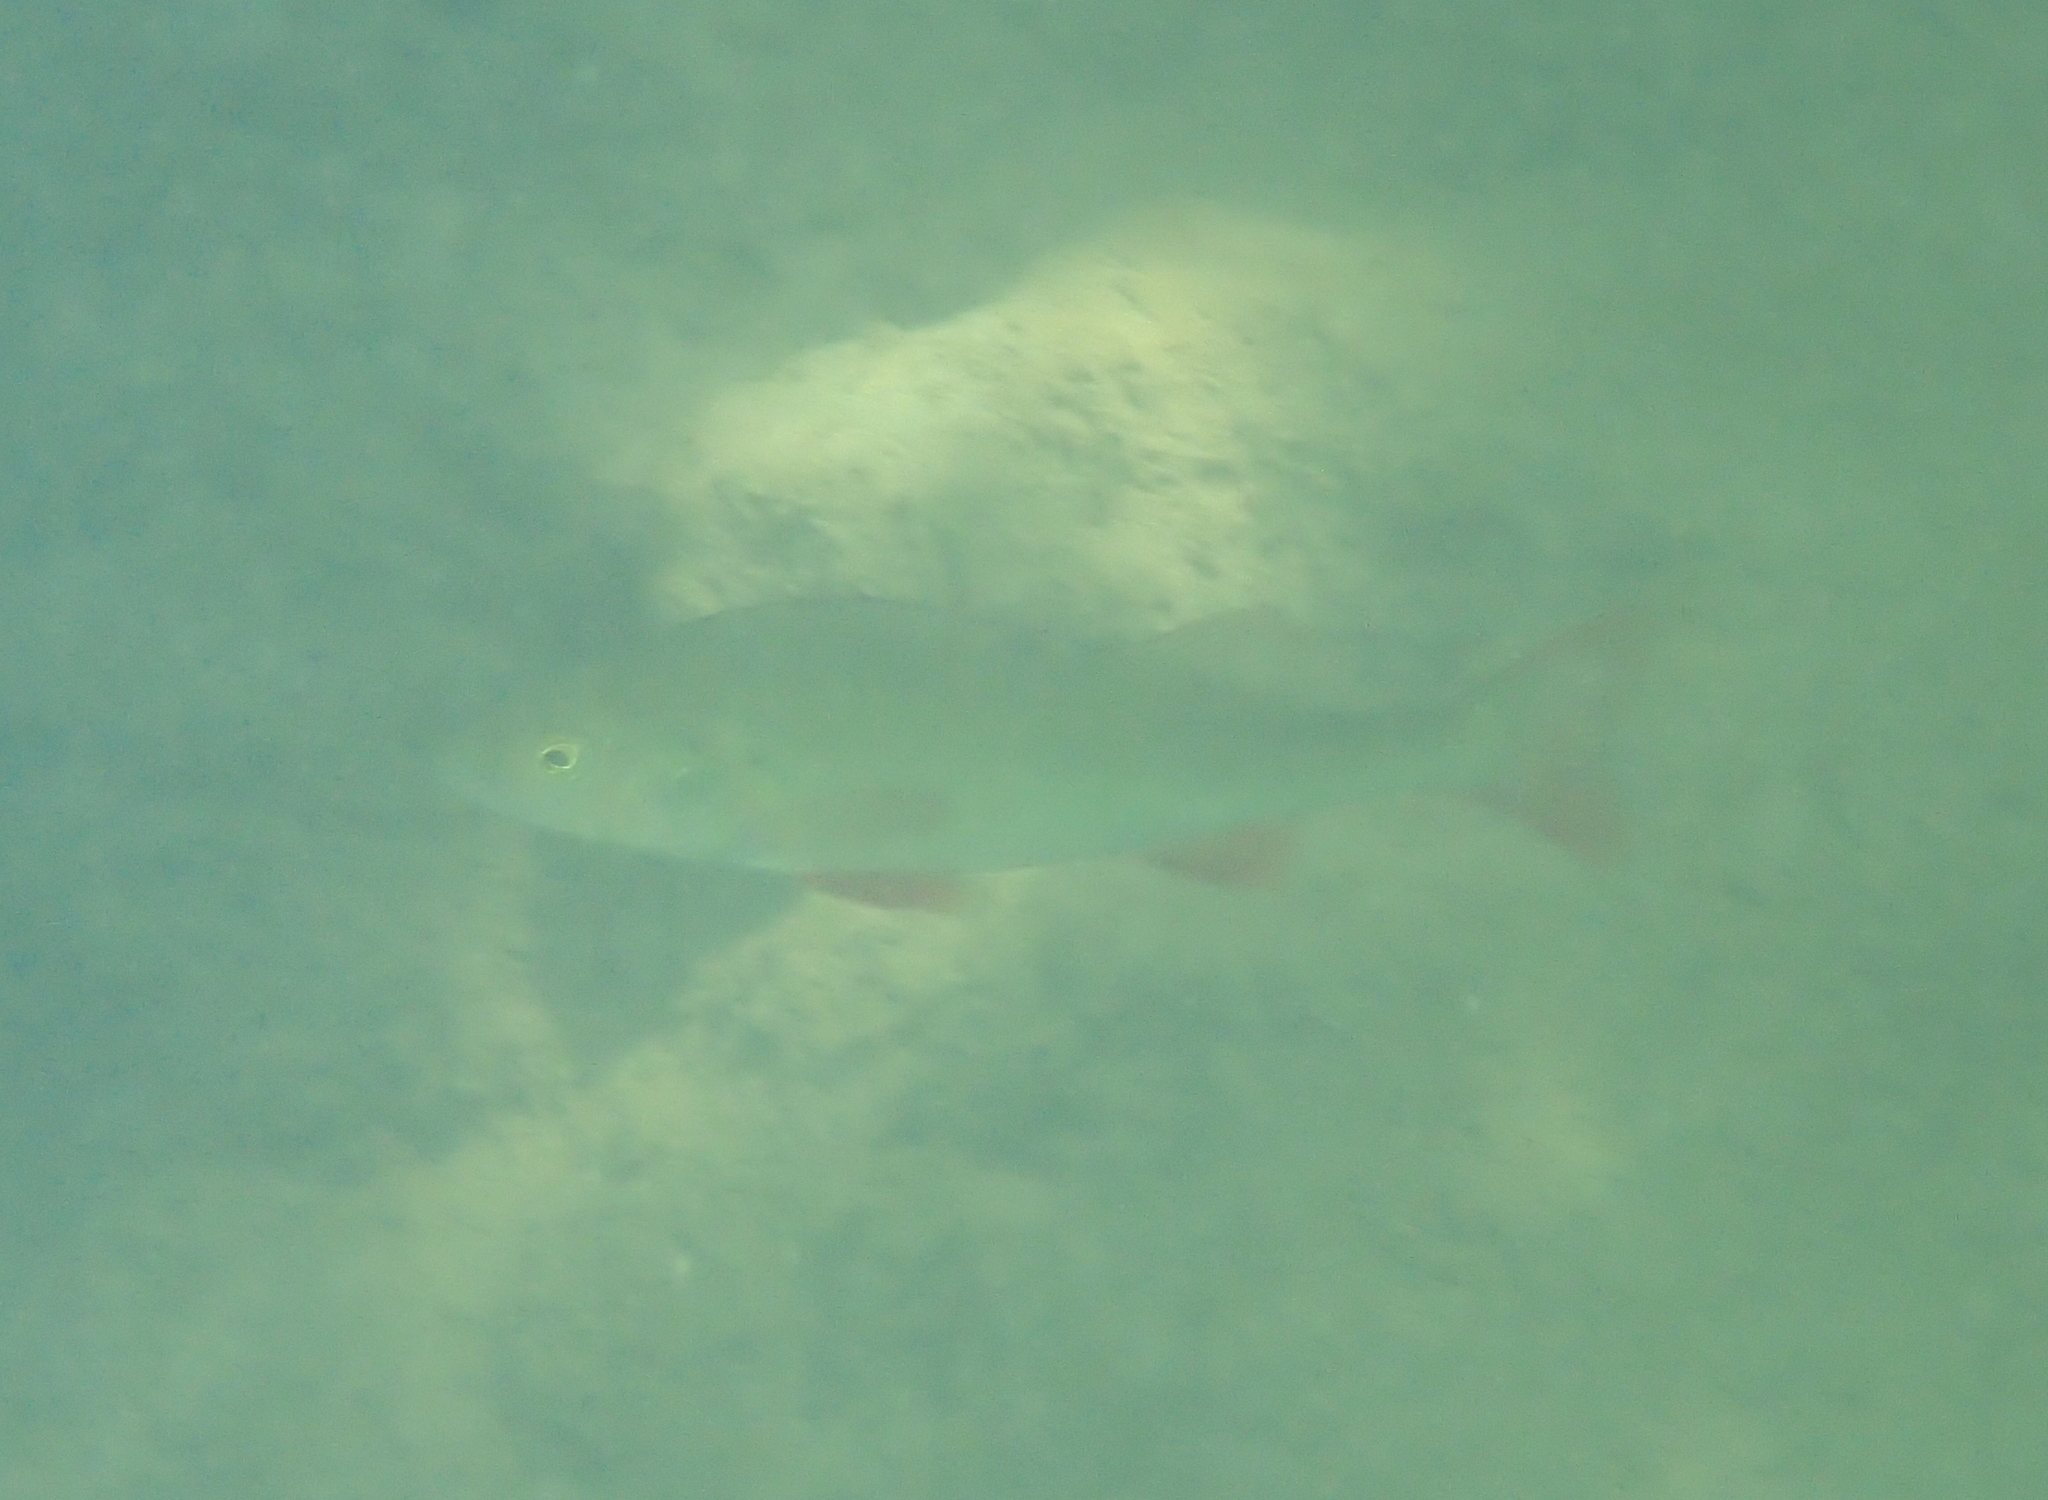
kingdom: Animalia
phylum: Chordata
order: Perciformes
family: Percidae
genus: Perca
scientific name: Perca fluviatilis
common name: Perch
